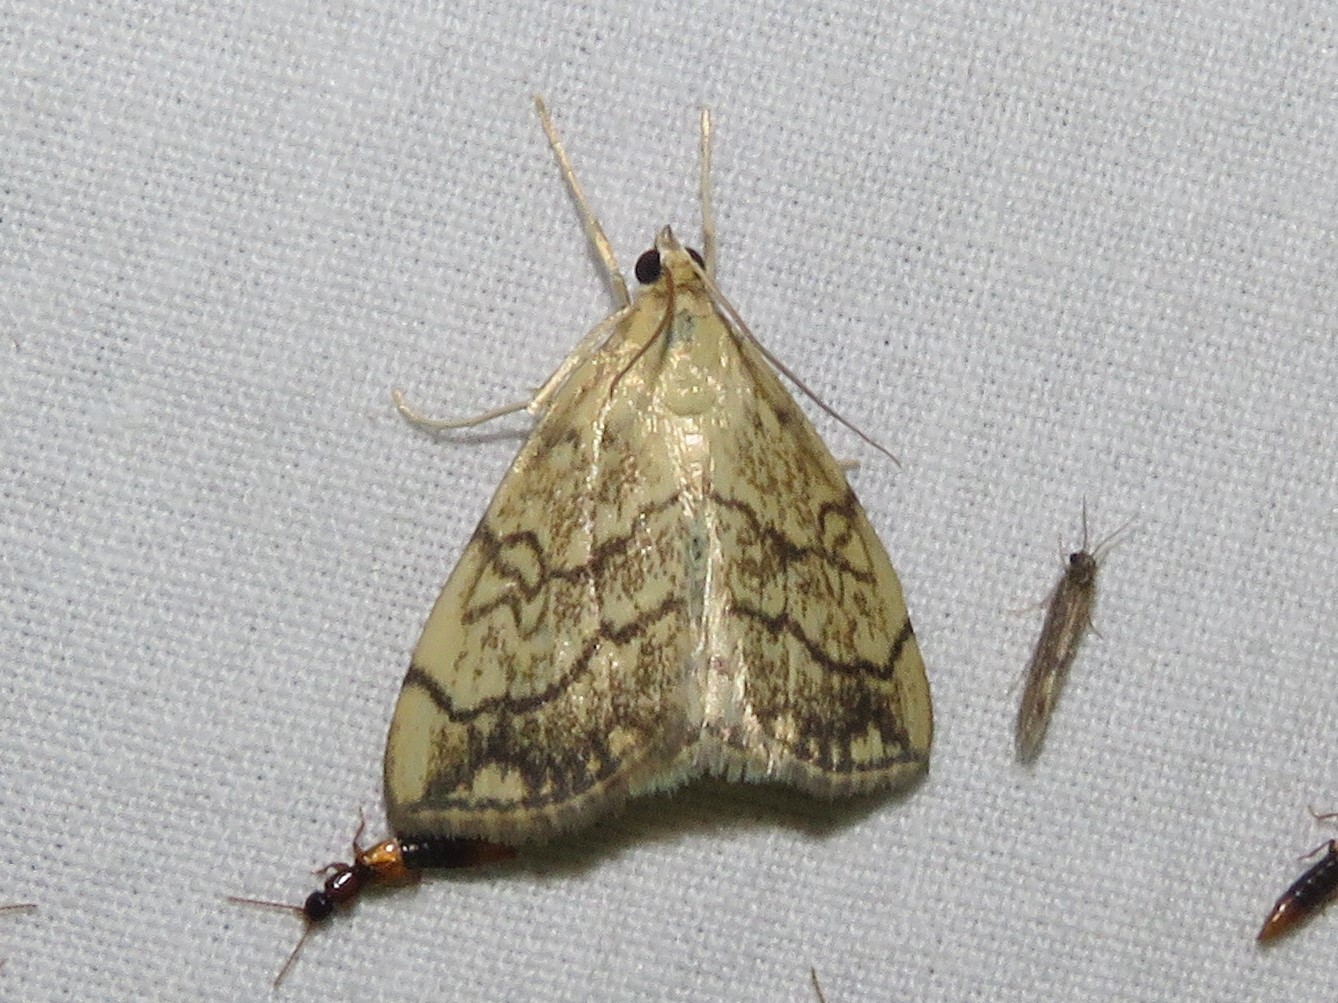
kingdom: Animalia
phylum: Arthropoda
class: Insecta
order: Lepidoptera
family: Crambidae
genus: Evergestis
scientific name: Evergestis pallidata
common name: Chequered pearl
